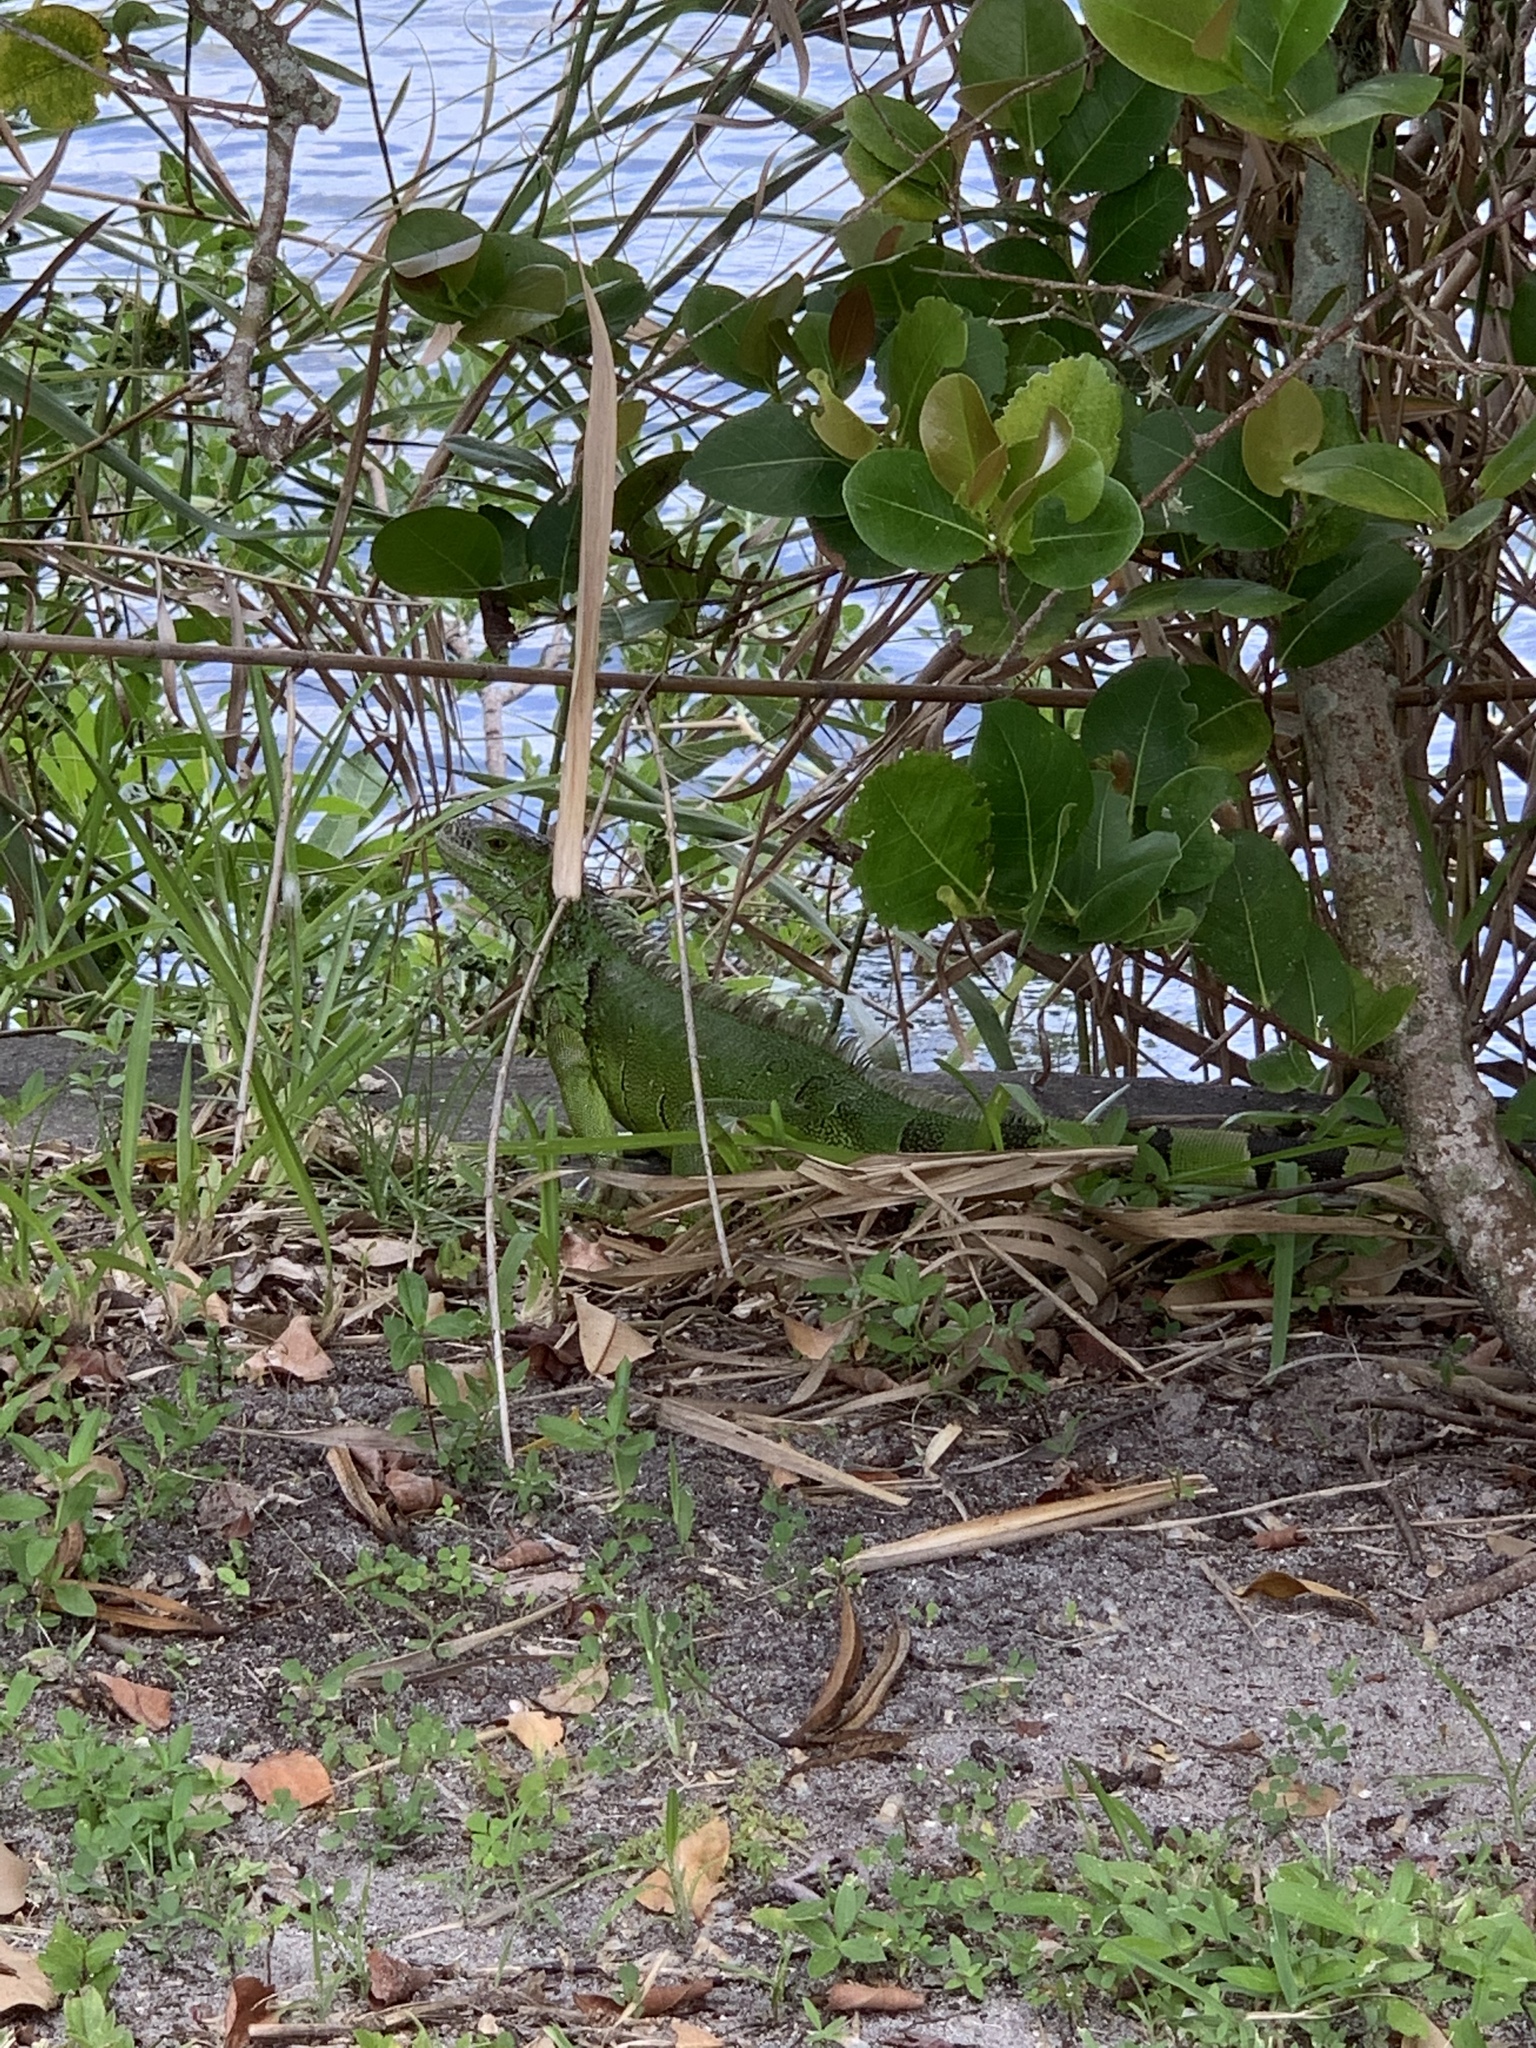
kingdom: Animalia
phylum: Chordata
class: Squamata
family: Iguanidae
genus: Iguana
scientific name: Iguana iguana
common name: Green iguana
